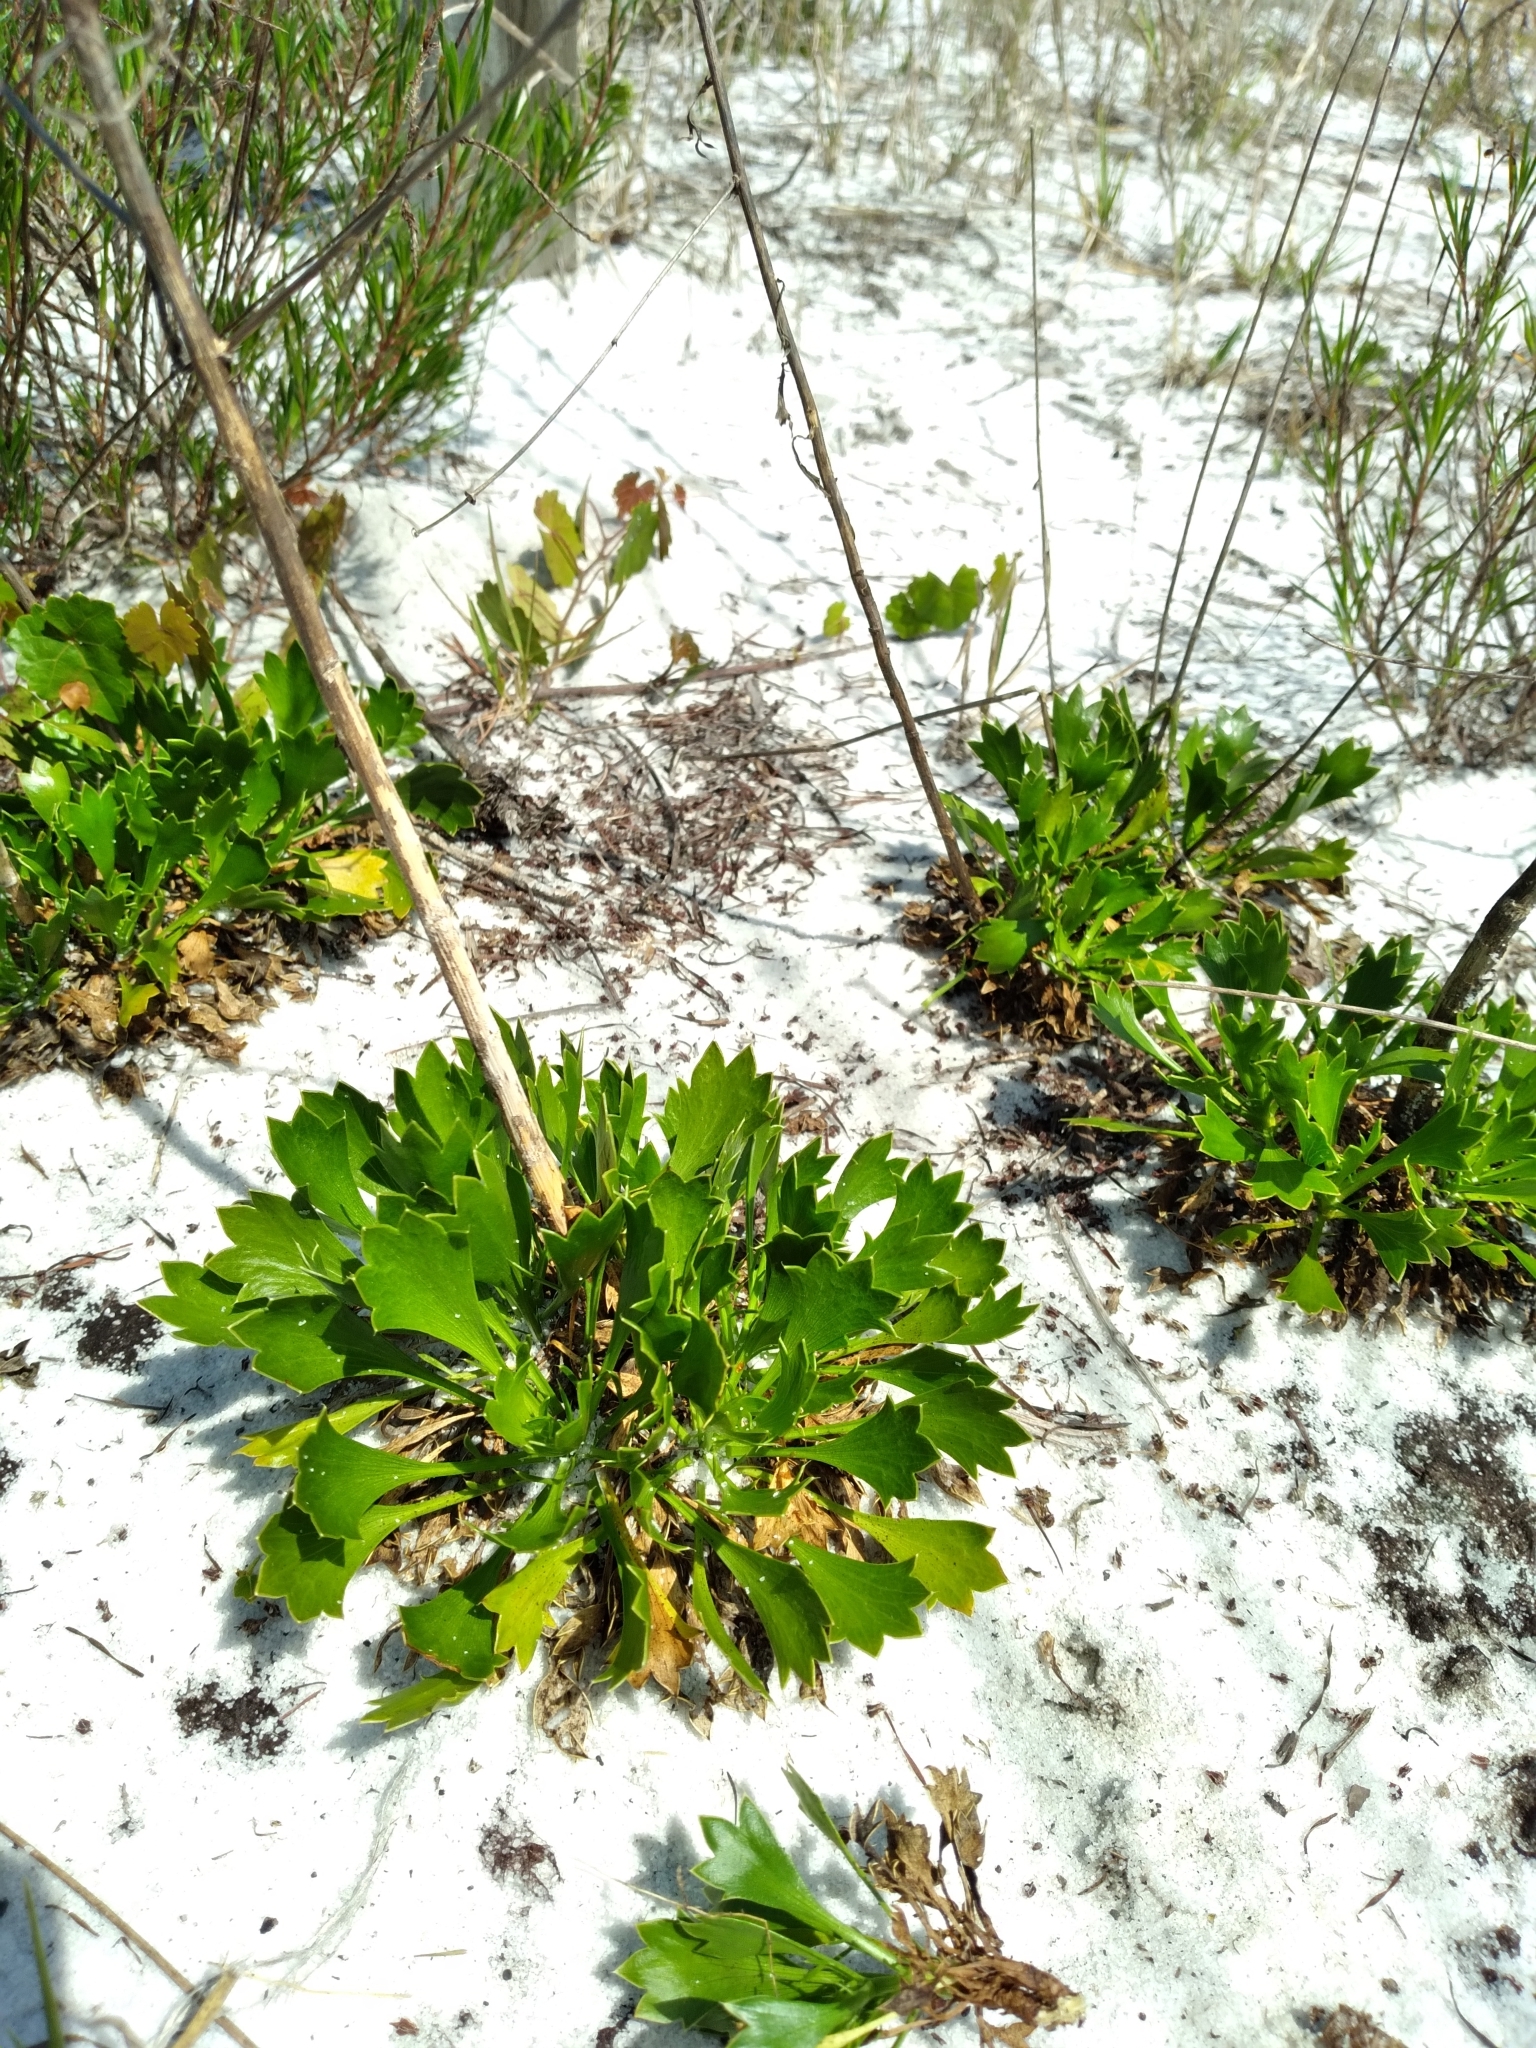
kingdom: Plantae
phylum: Tracheophyta
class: Magnoliopsida
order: Apiales
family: Apiaceae
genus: Eryngium
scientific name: Eryngium cuneifolium
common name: Snakeroot
